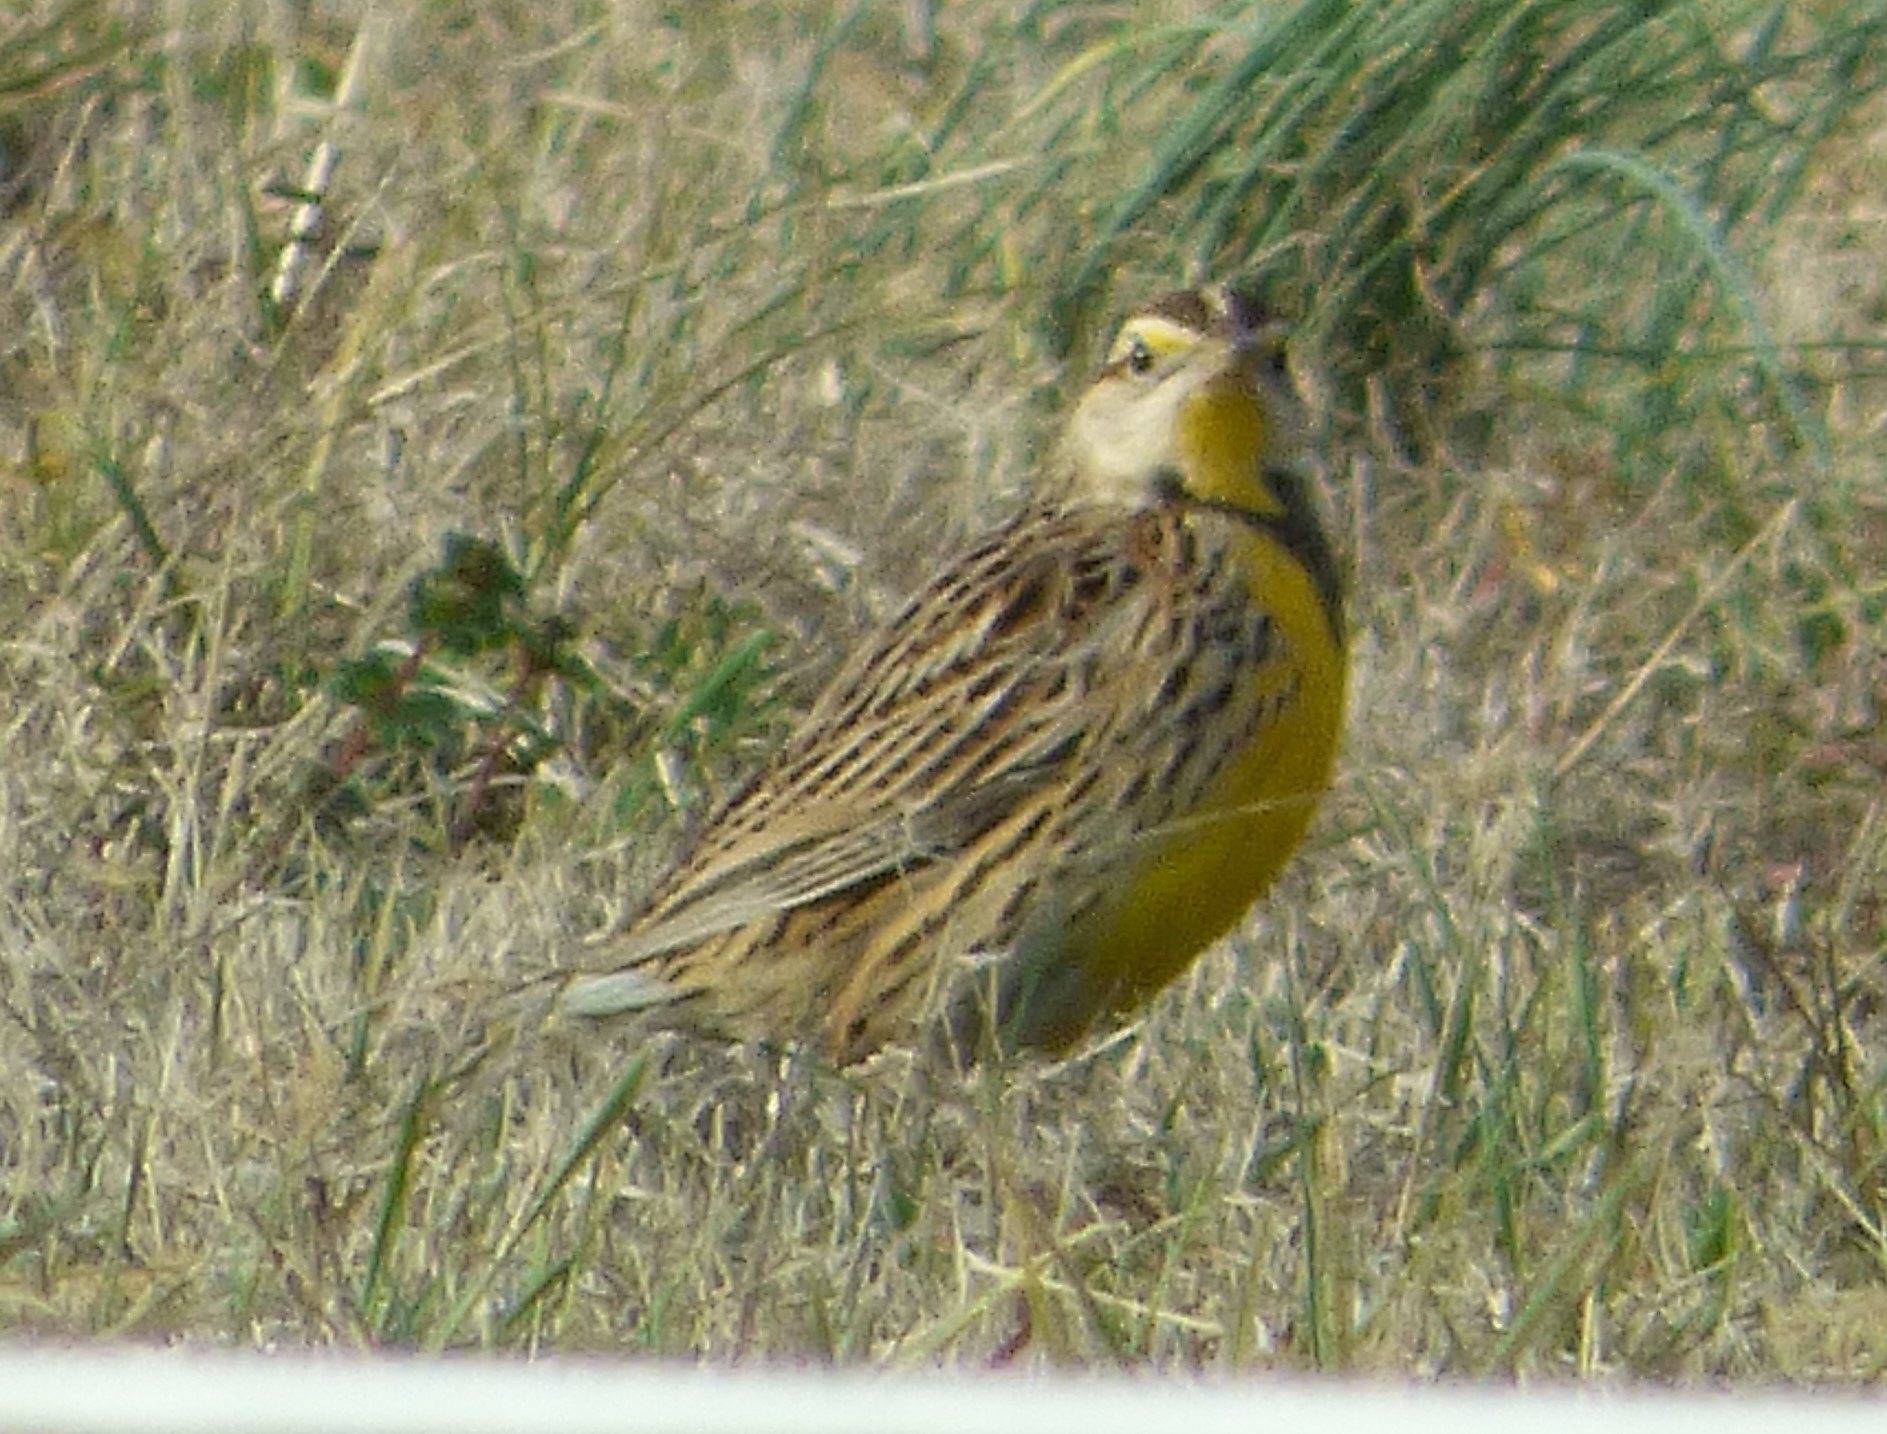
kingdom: Animalia
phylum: Chordata
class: Aves
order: Passeriformes
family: Icteridae
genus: Sturnella
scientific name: Sturnella magna
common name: Eastern meadowlark
